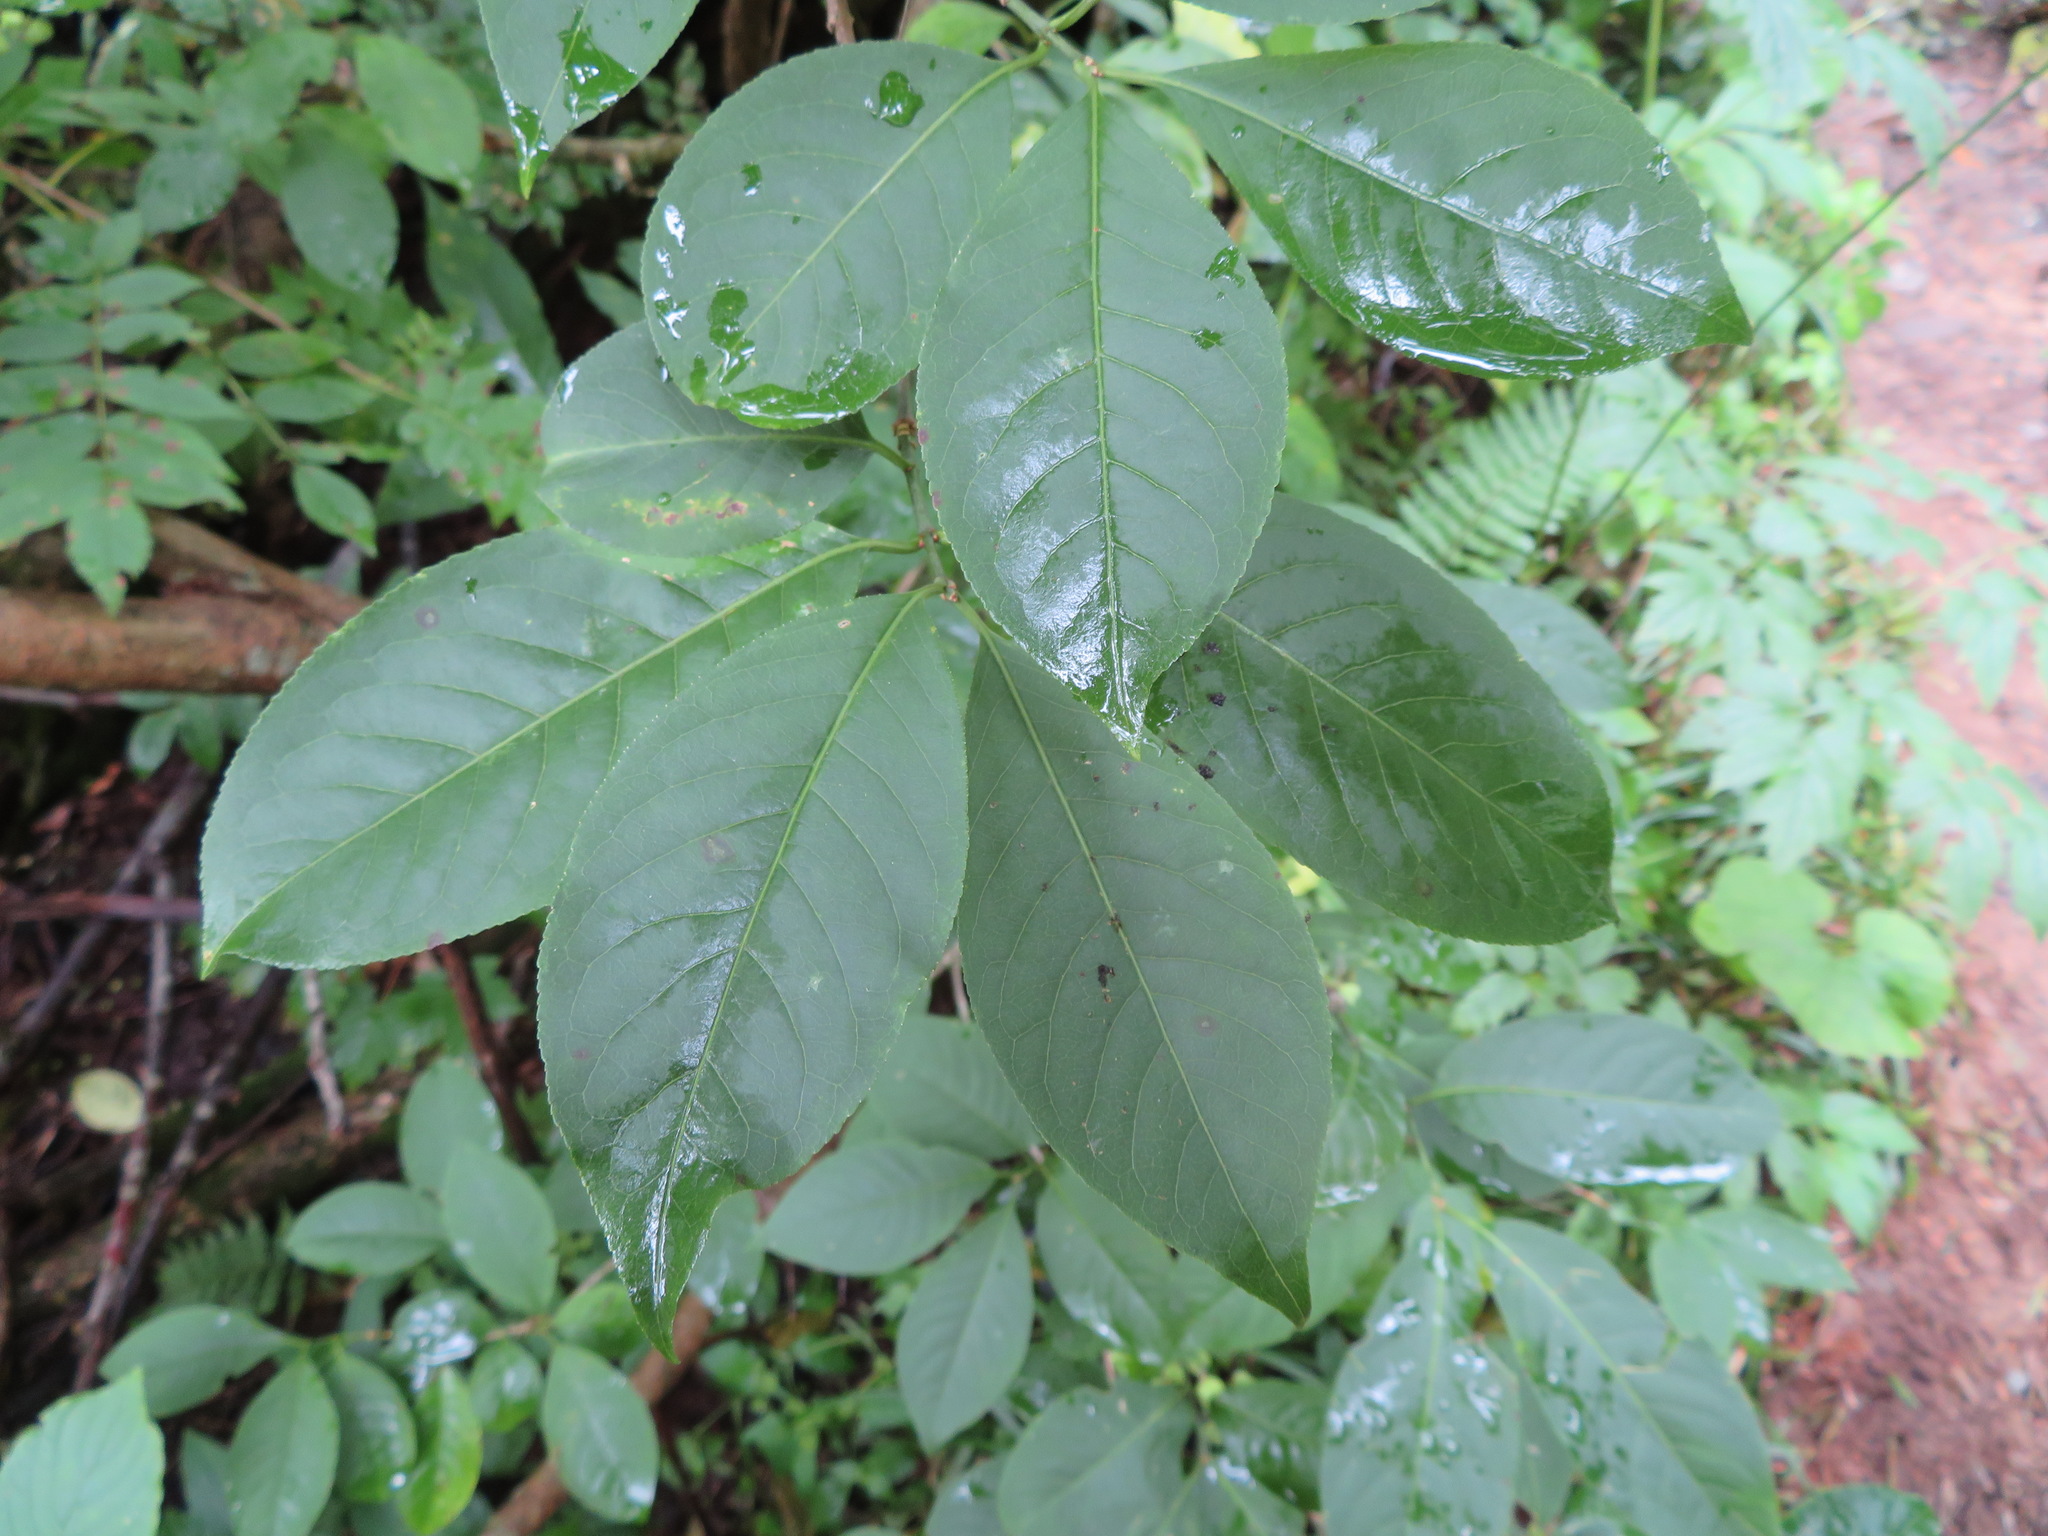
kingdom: Plantae
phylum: Tracheophyta
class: Magnoliopsida
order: Celastrales
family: Celastraceae
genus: Euonymus
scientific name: Euonymus hamiltonianus
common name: Hamilton's spindletree
